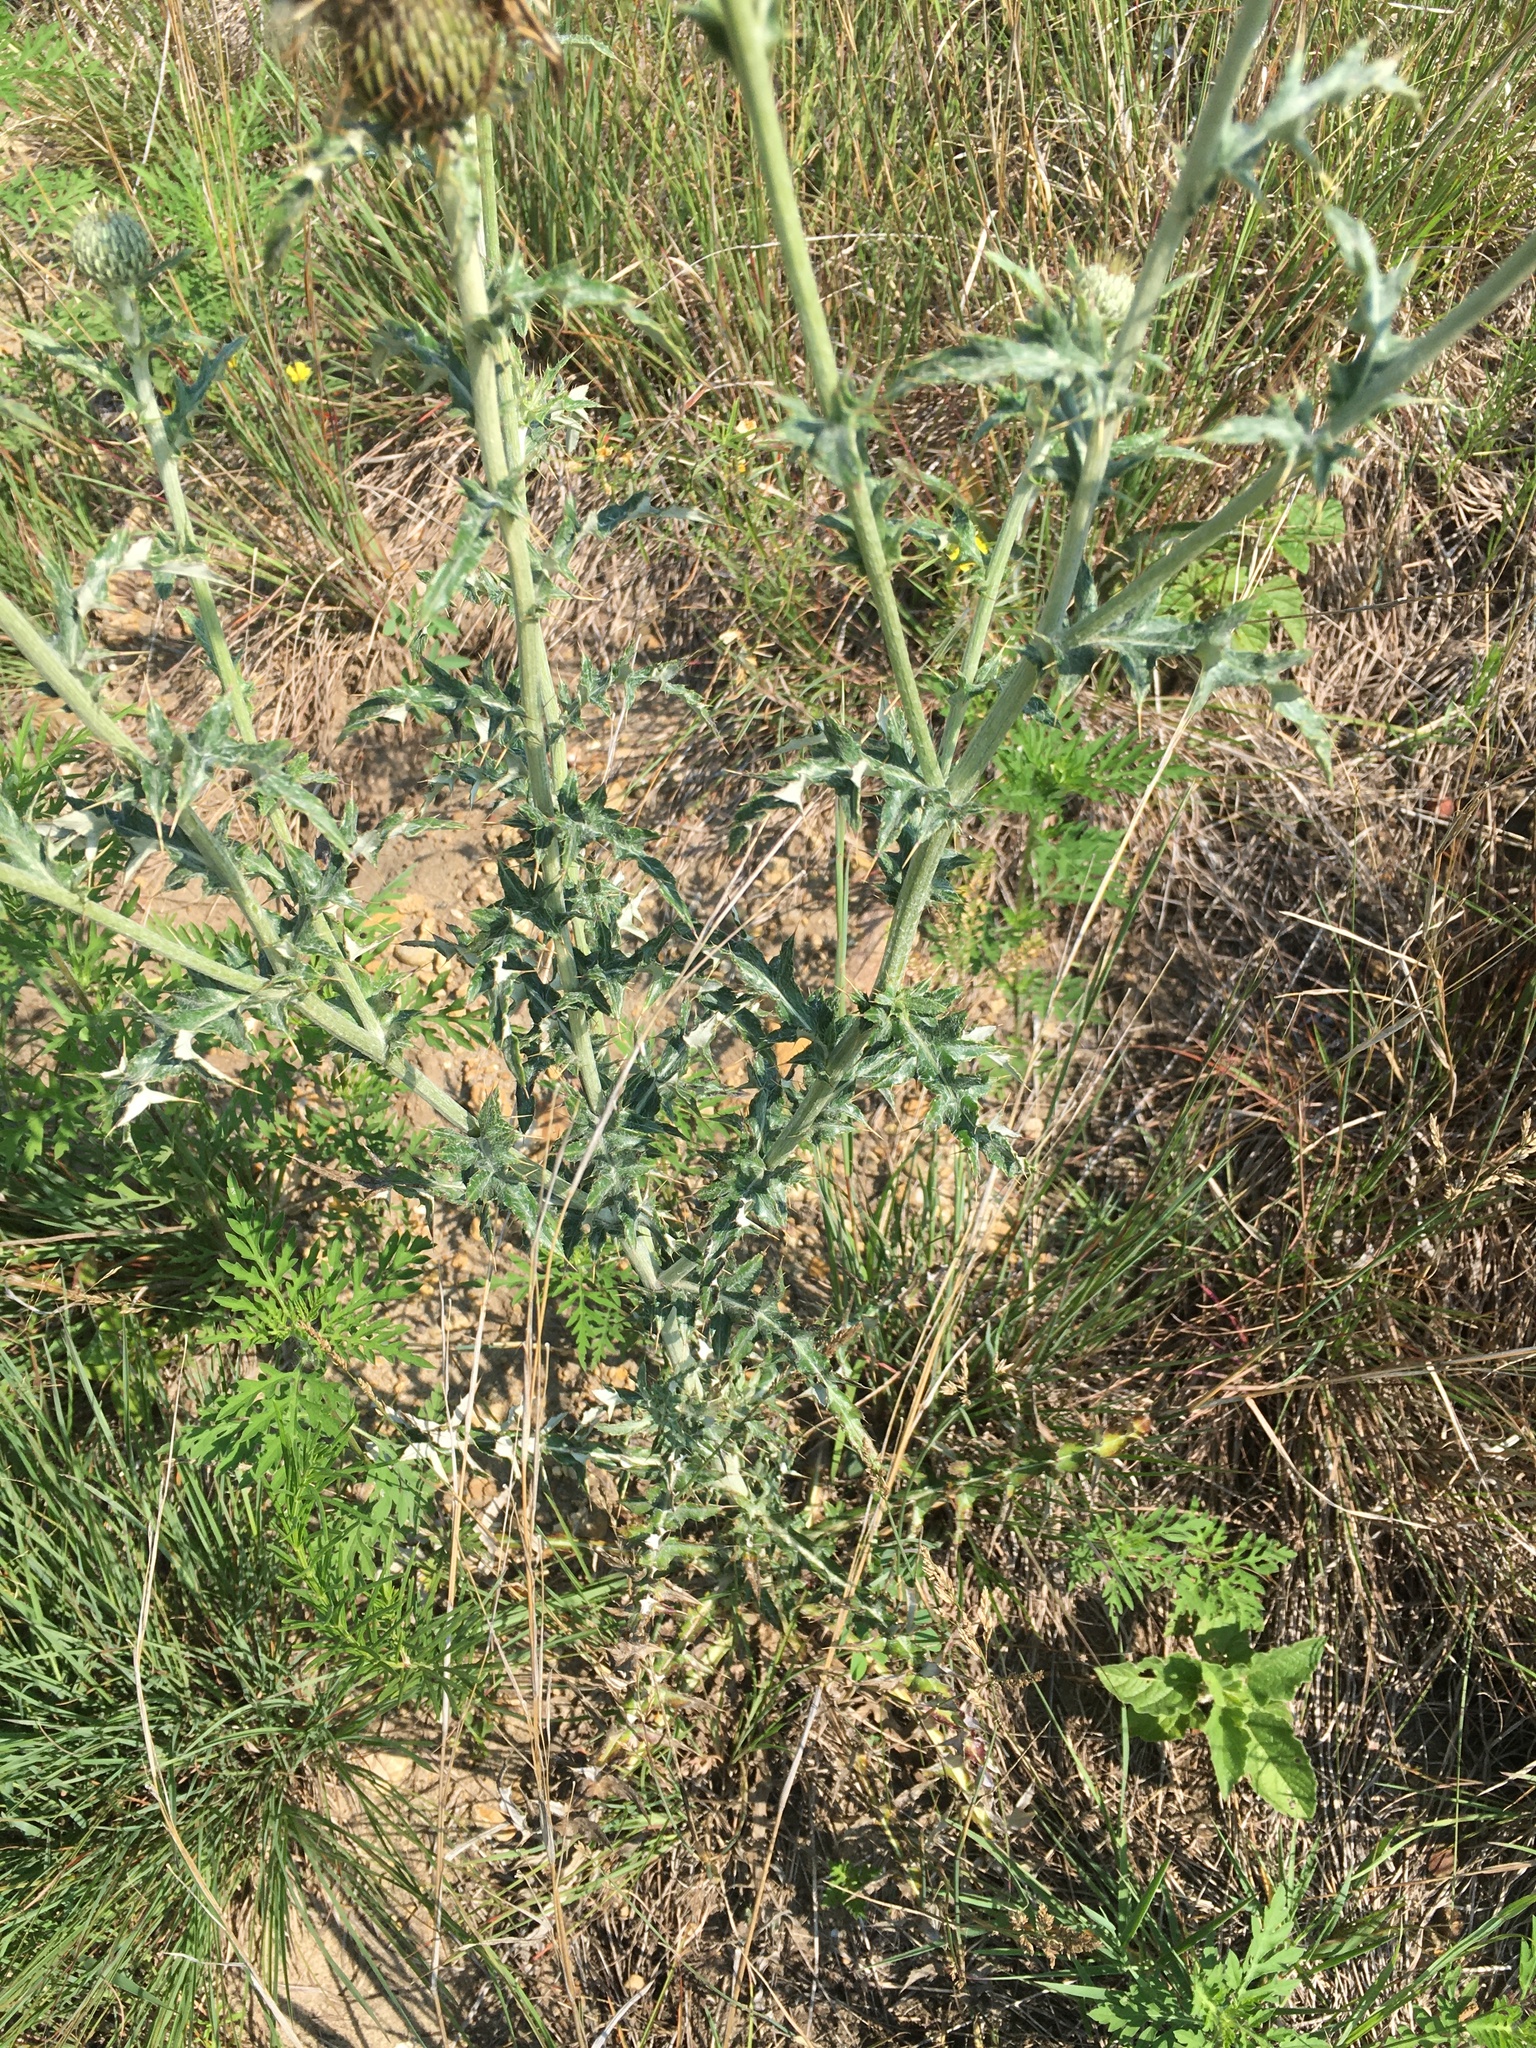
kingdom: Plantae
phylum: Tracheophyta
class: Magnoliopsida
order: Asterales
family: Asteraceae
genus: Cirsium
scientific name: Cirsium flodmanii
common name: Flodman's thistle
